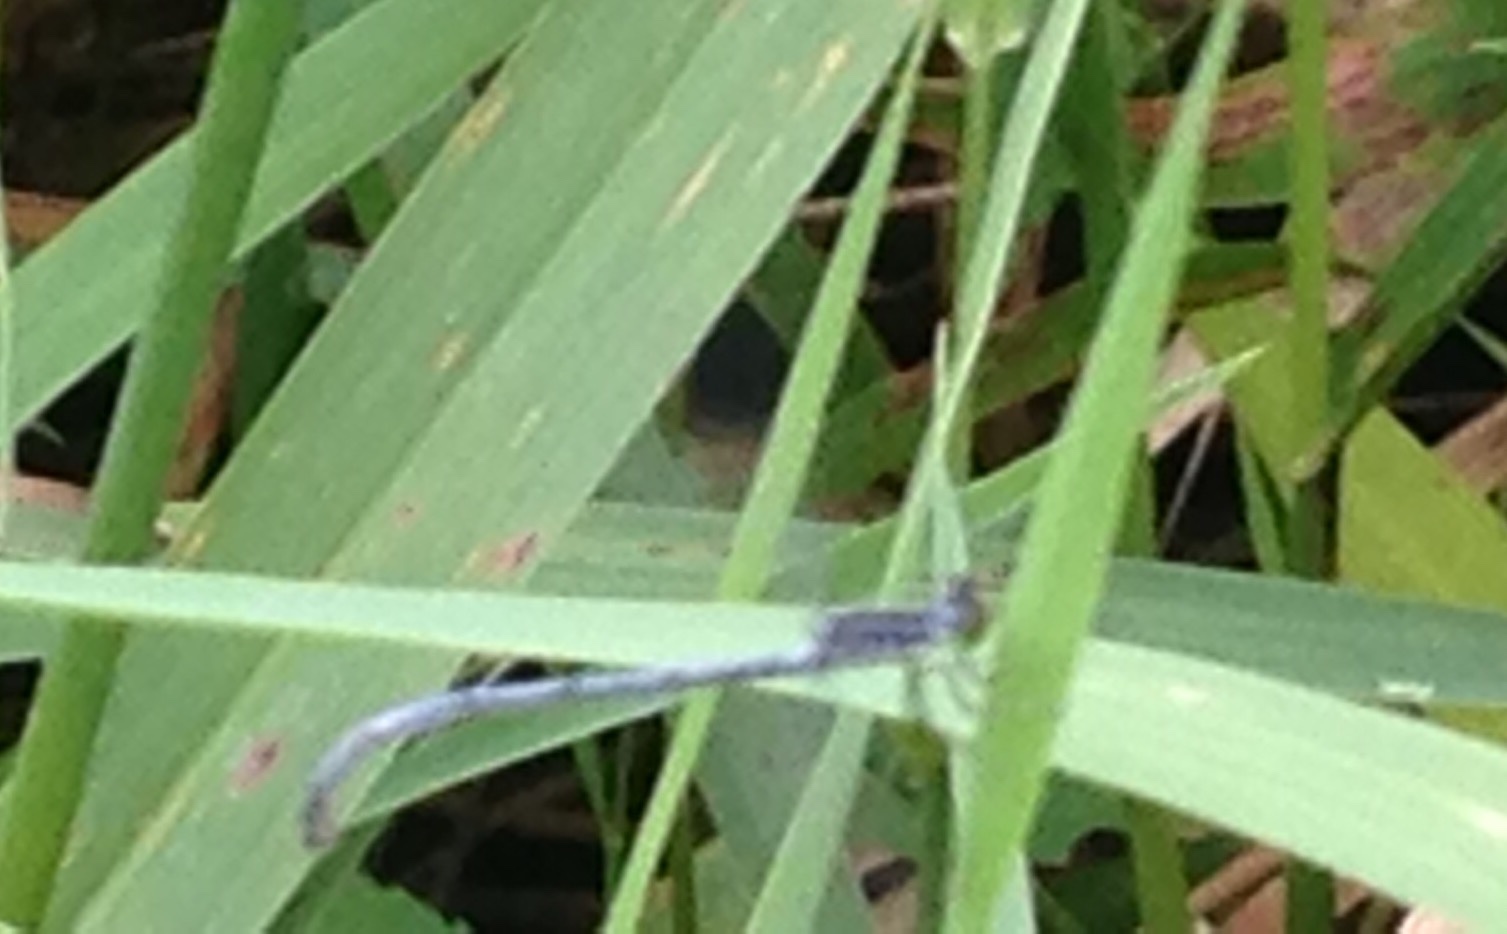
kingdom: Animalia
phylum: Arthropoda
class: Insecta
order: Odonata
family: Coenagrionidae
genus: Ischnura
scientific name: Ischnura verticalis
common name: Eastern forktail
